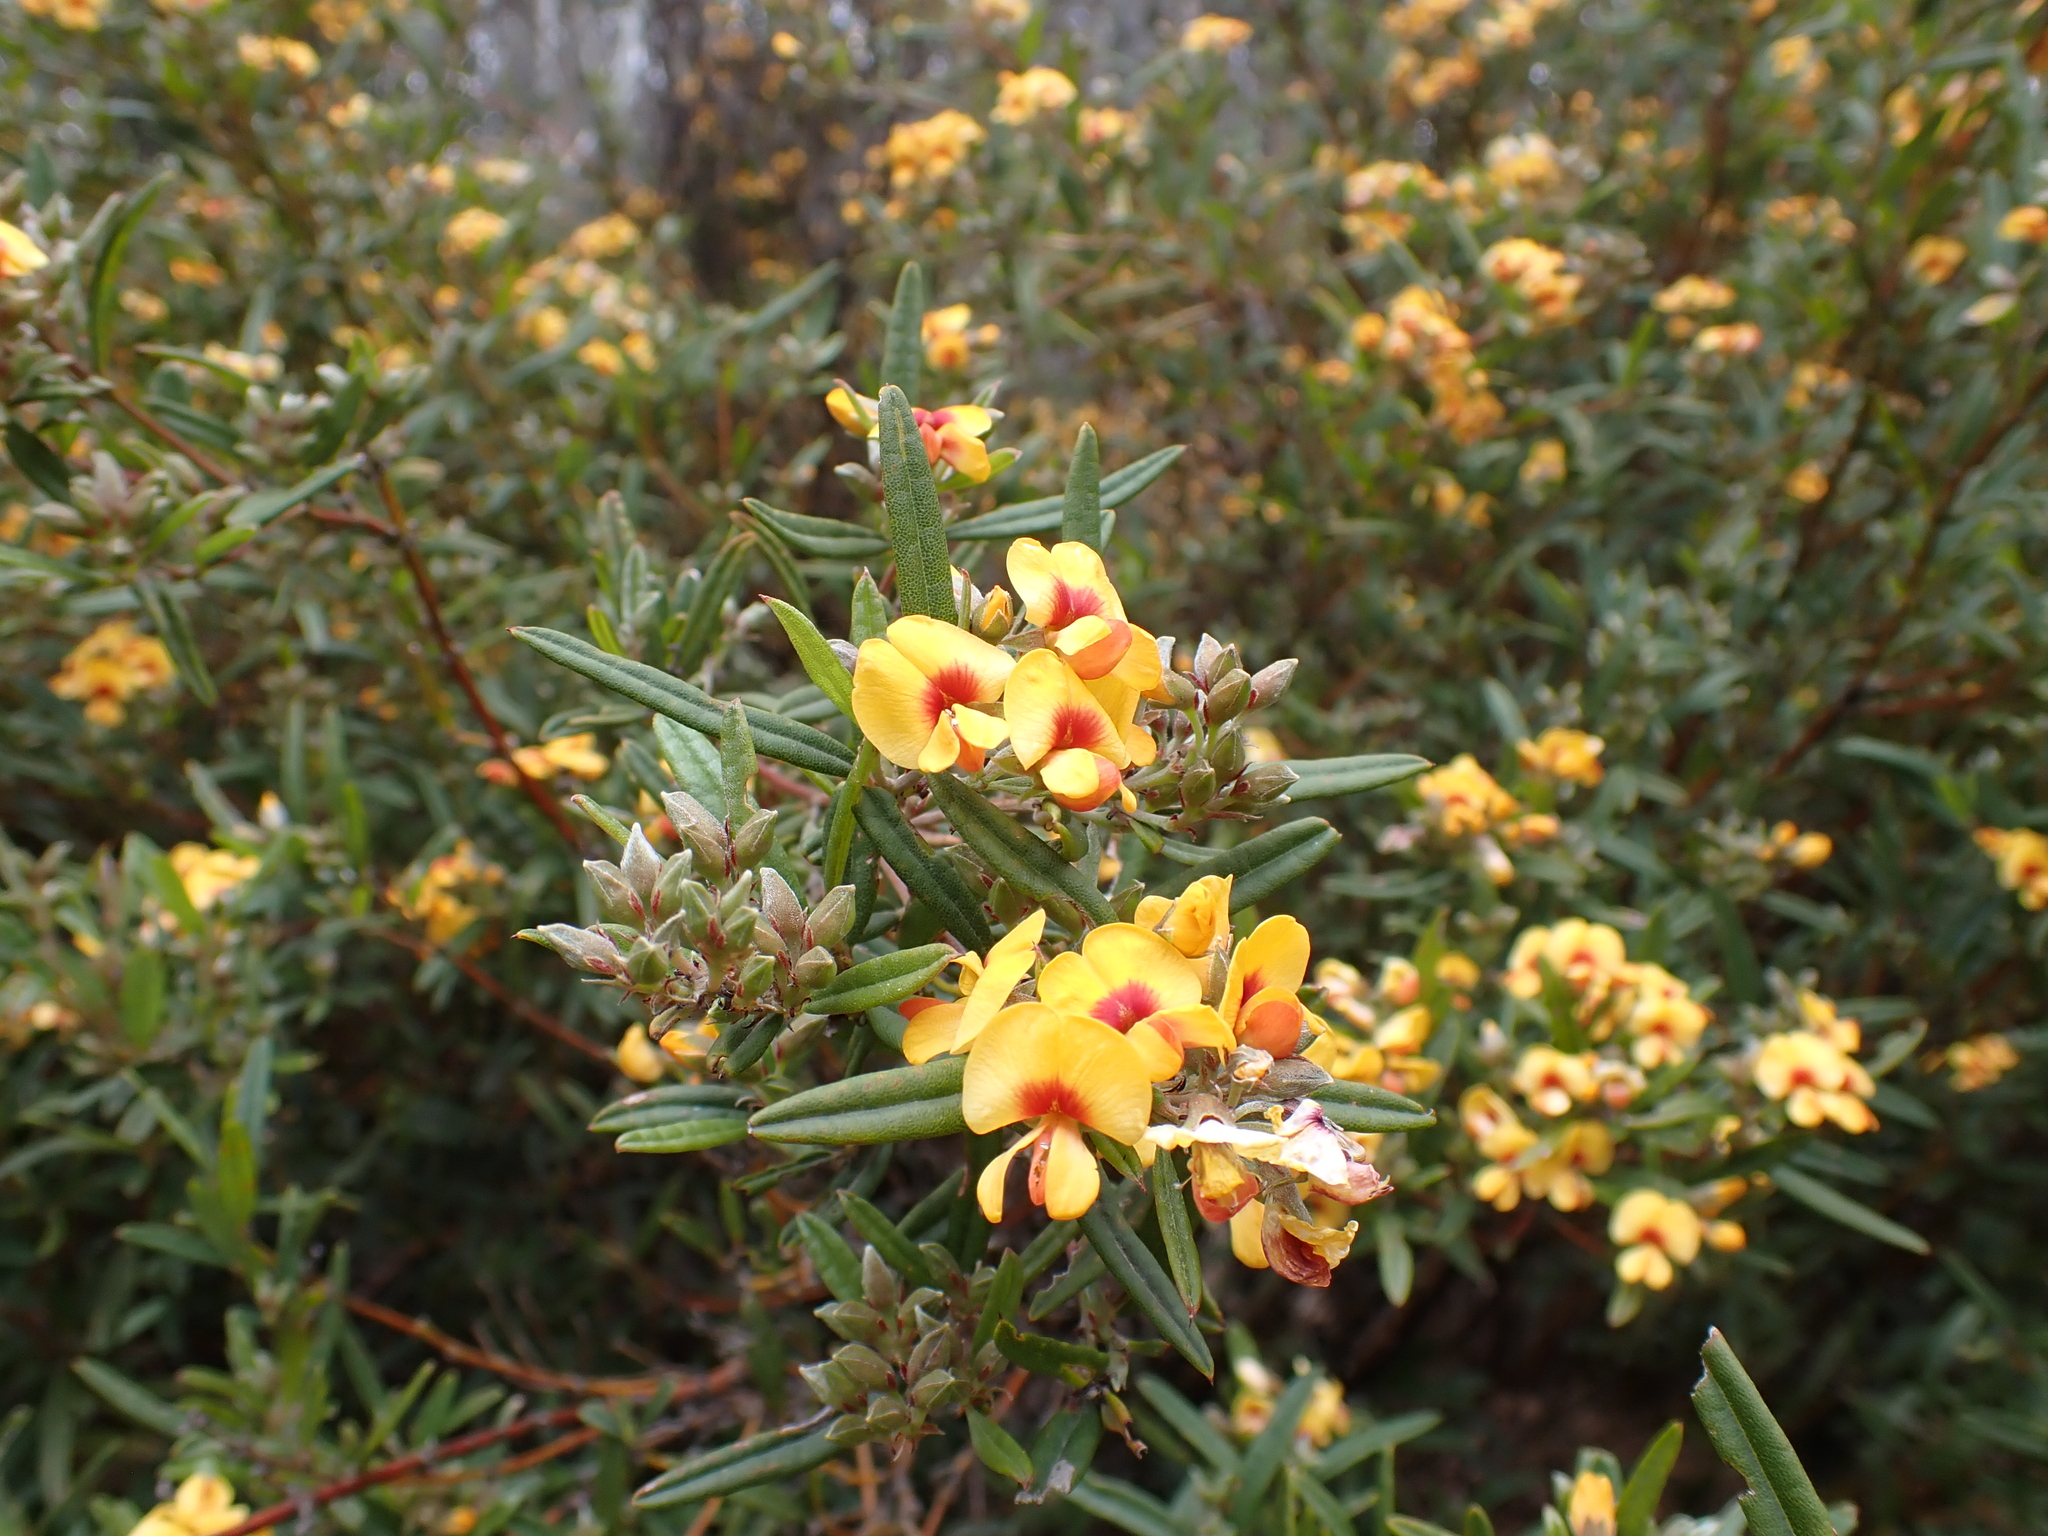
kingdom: Plantae
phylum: Tracheophyta
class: Magnoliopsida
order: Fabales
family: Fabaceae
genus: Podolobium
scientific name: Podolobium alpestre
